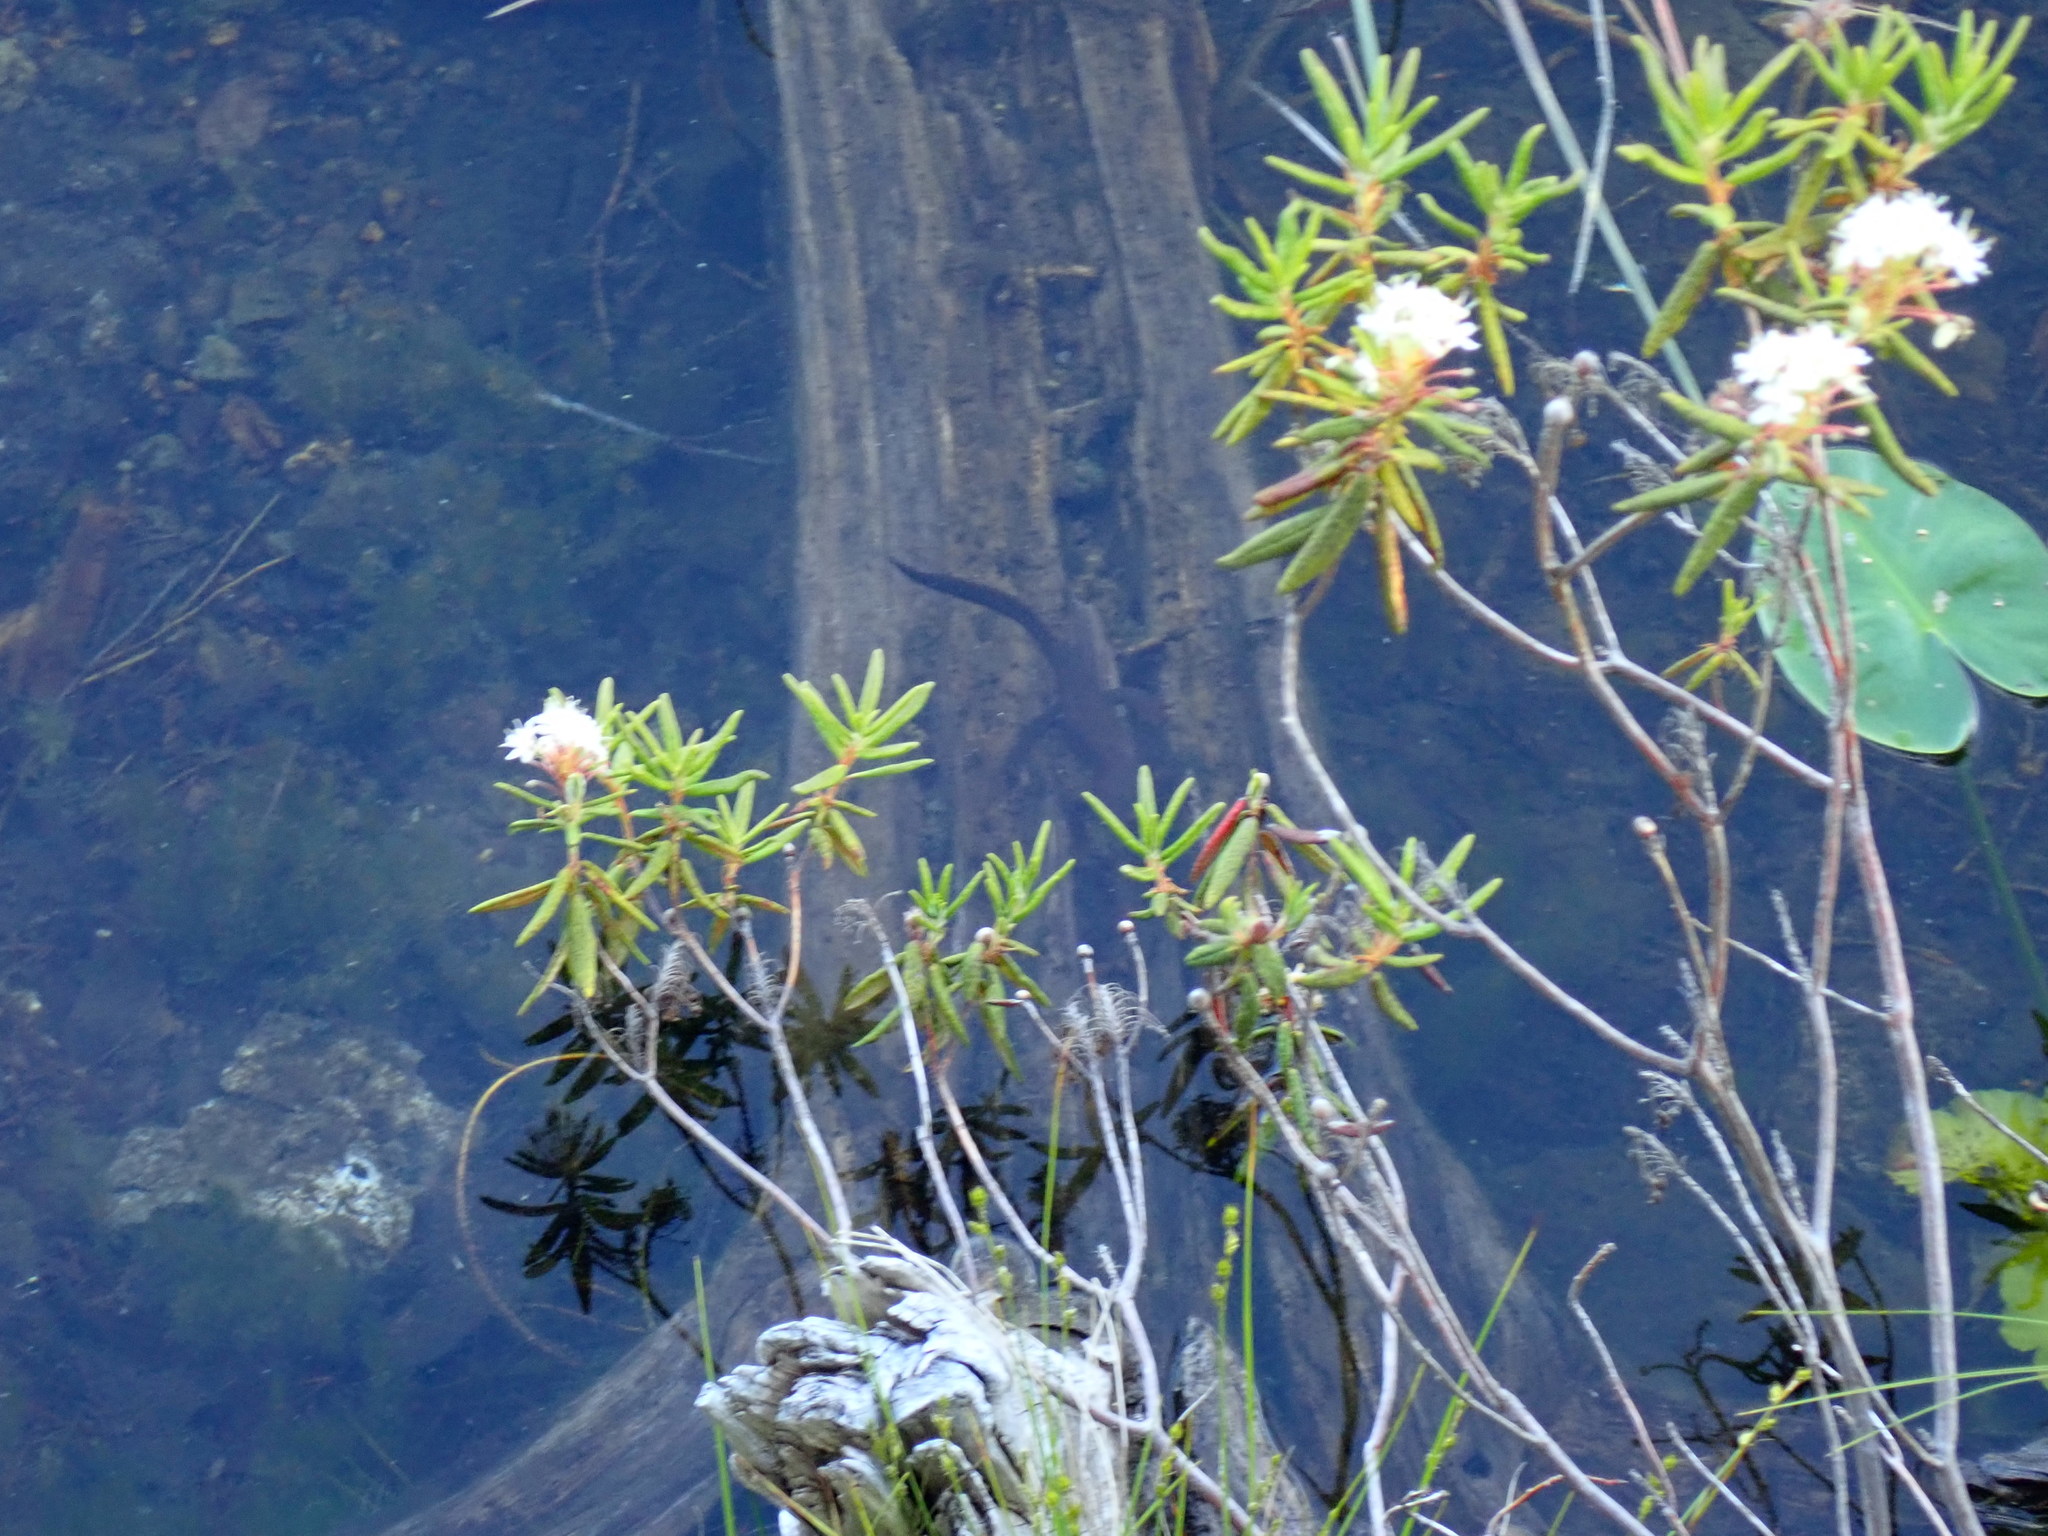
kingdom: Animalia
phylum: Chordata
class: Amphibia
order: Caudata
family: Salamandridae
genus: Taricha
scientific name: Taricha granulosa
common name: Roughskin newt
